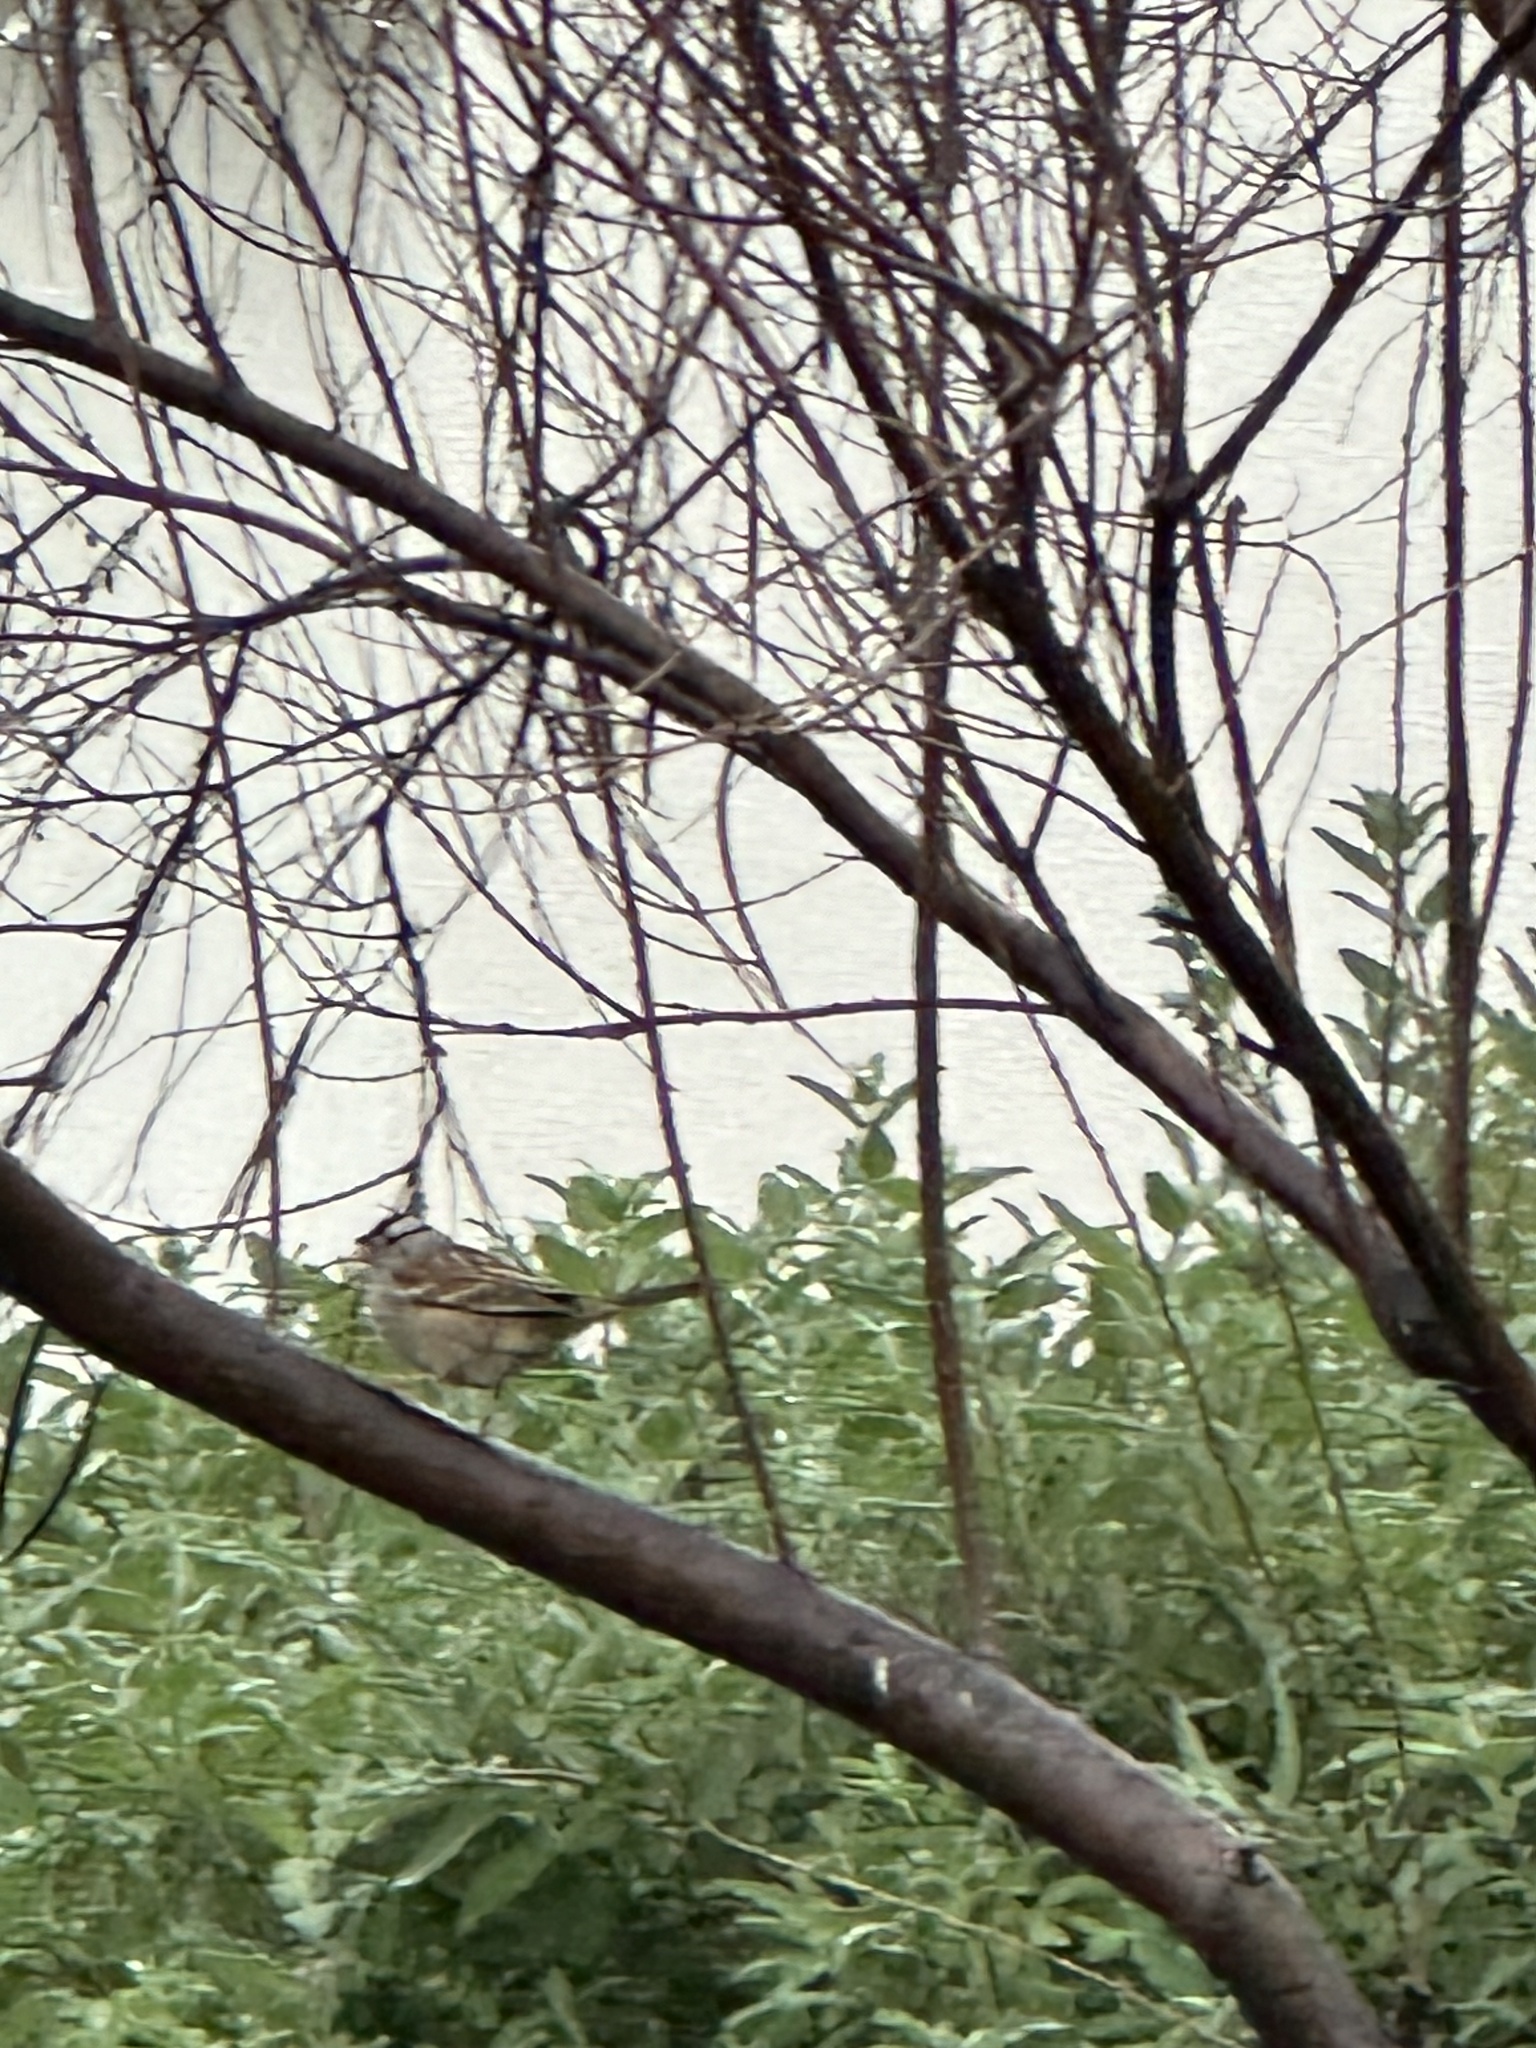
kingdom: Animalia
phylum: Chordata
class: Aves
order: Passeriformes
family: Passerellidae
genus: Zonotrichia
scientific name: Zonotrichia leucophrys
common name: White-crowned sparrow
